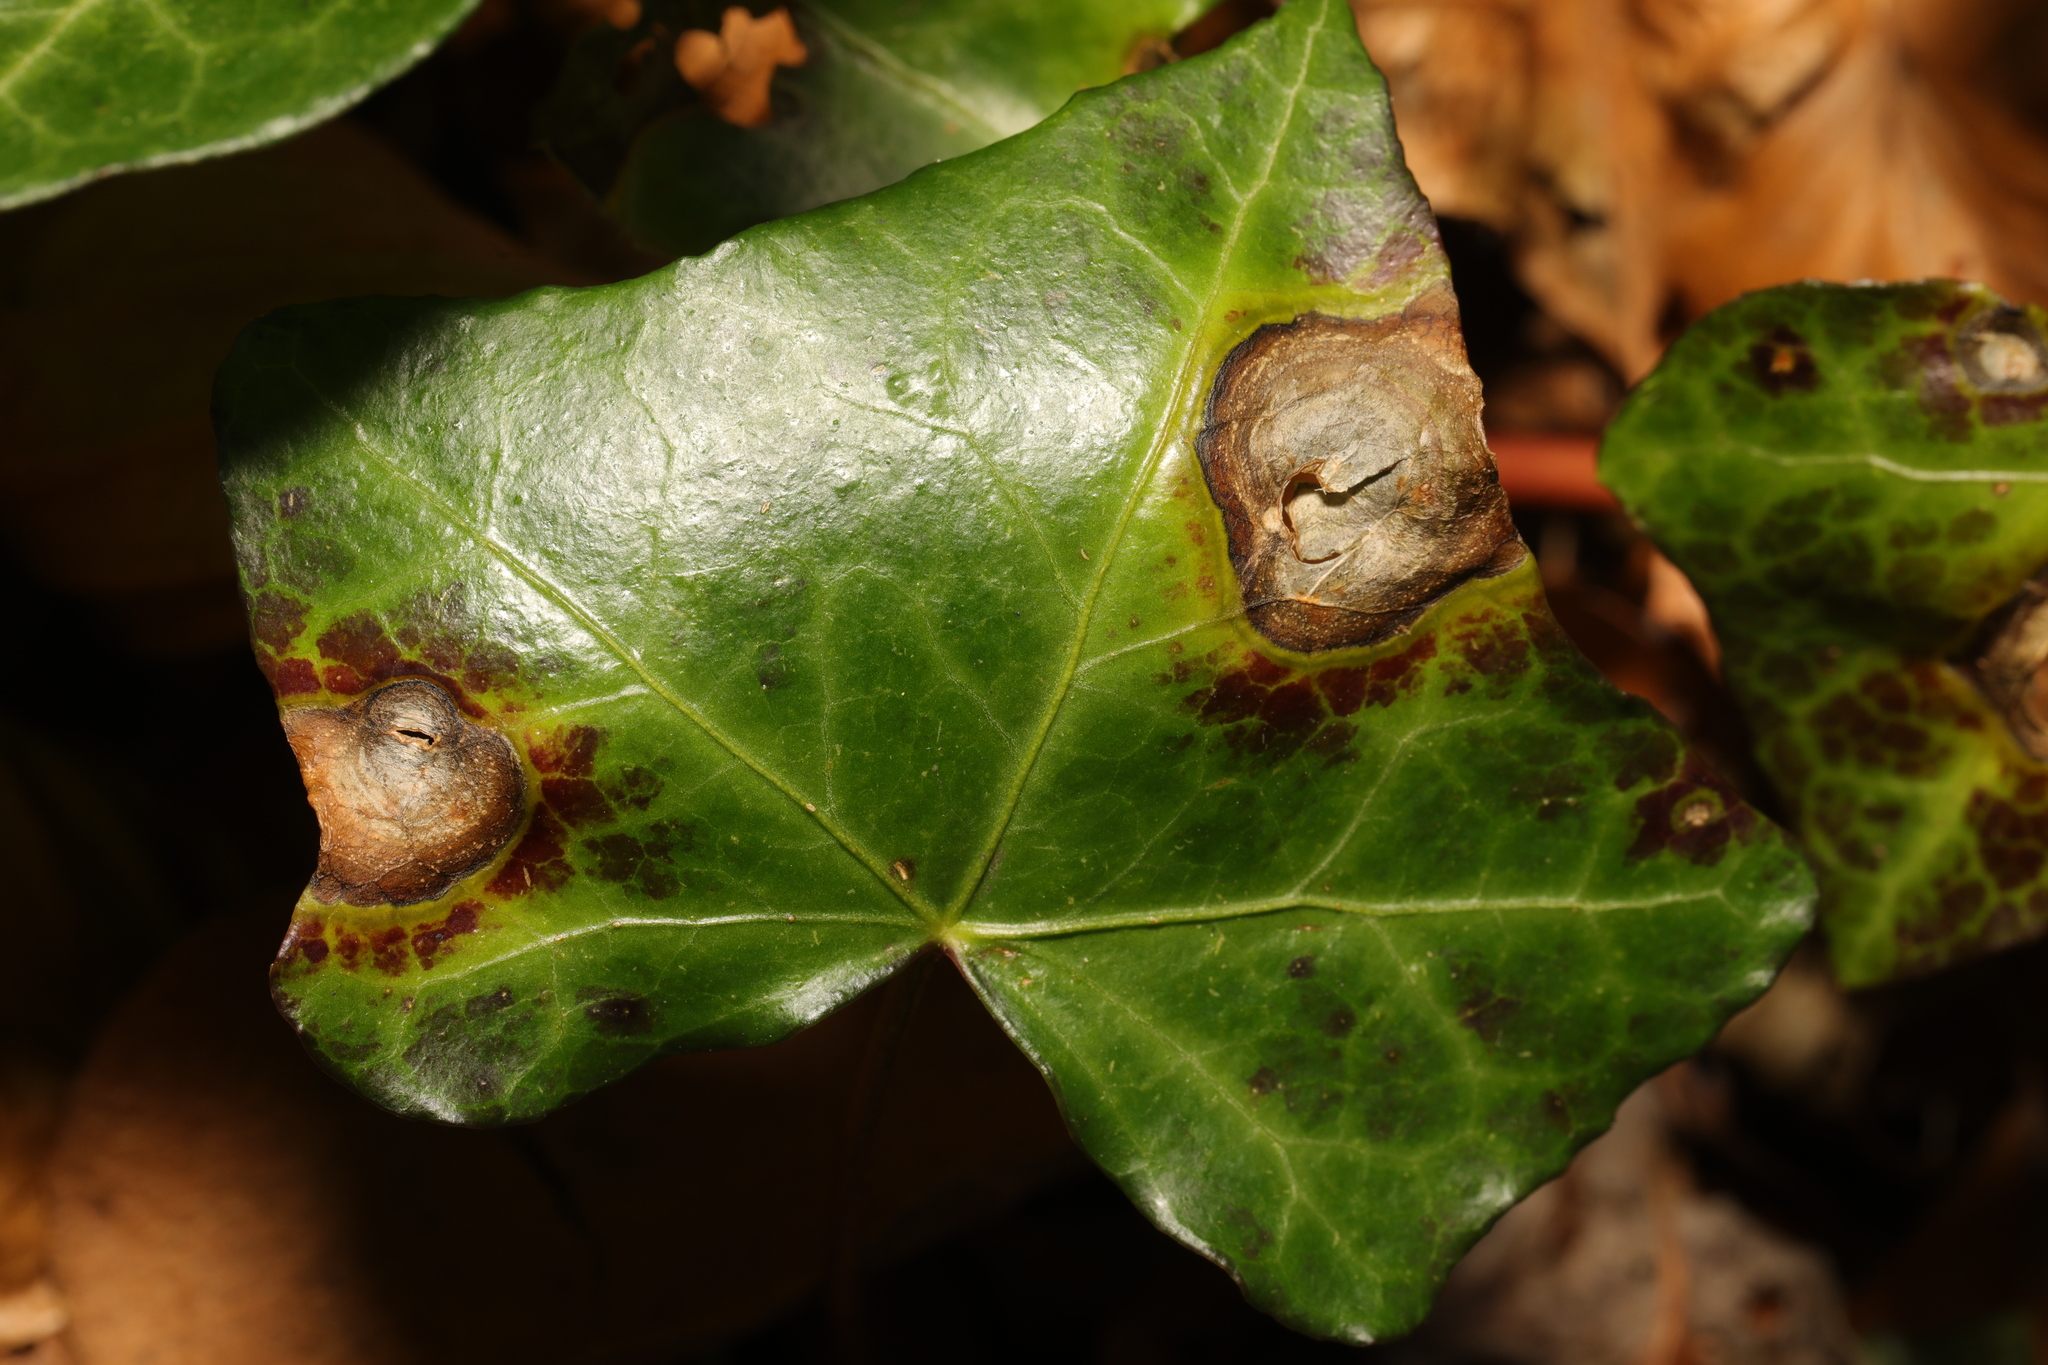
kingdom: Fungi
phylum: Ascomycota
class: Dothideomycetes
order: Pleosporales
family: Didymellaceae
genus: Boeremia
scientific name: Boeremia hedericola
